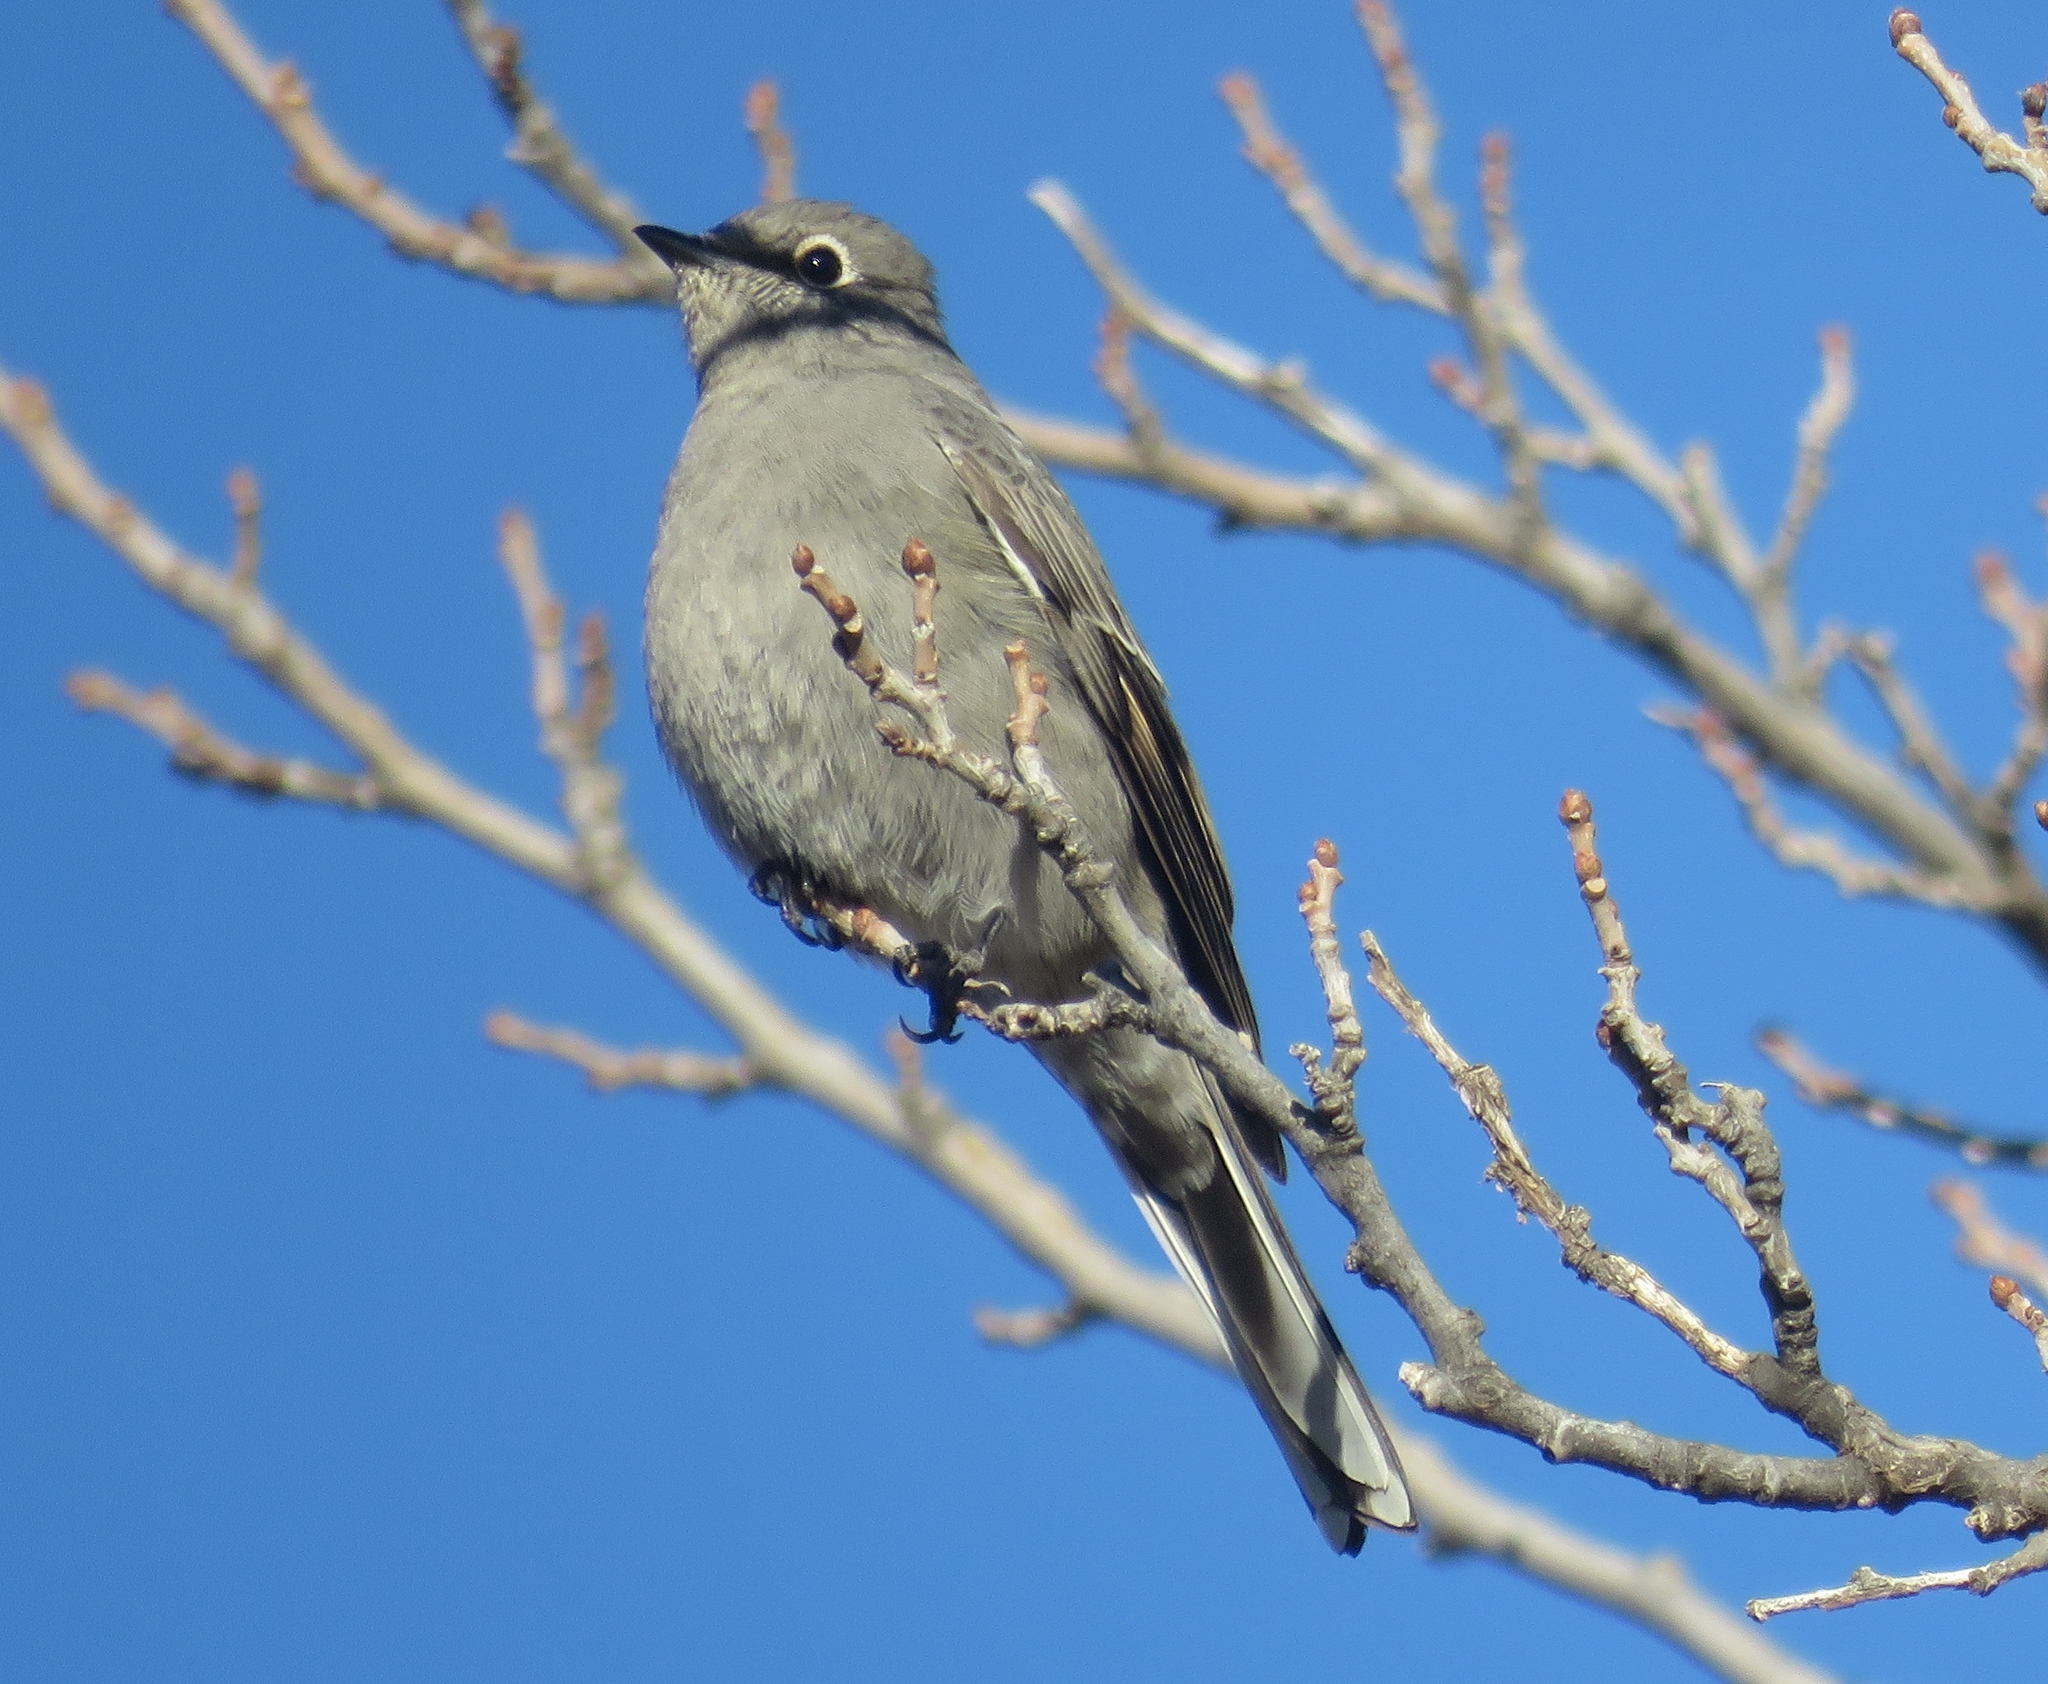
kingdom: Animalia
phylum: Chordata
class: Aves
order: Passeriformes
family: Turdidae
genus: Myadestes
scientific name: Myadestes townsendi
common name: Townsend's solitaire
